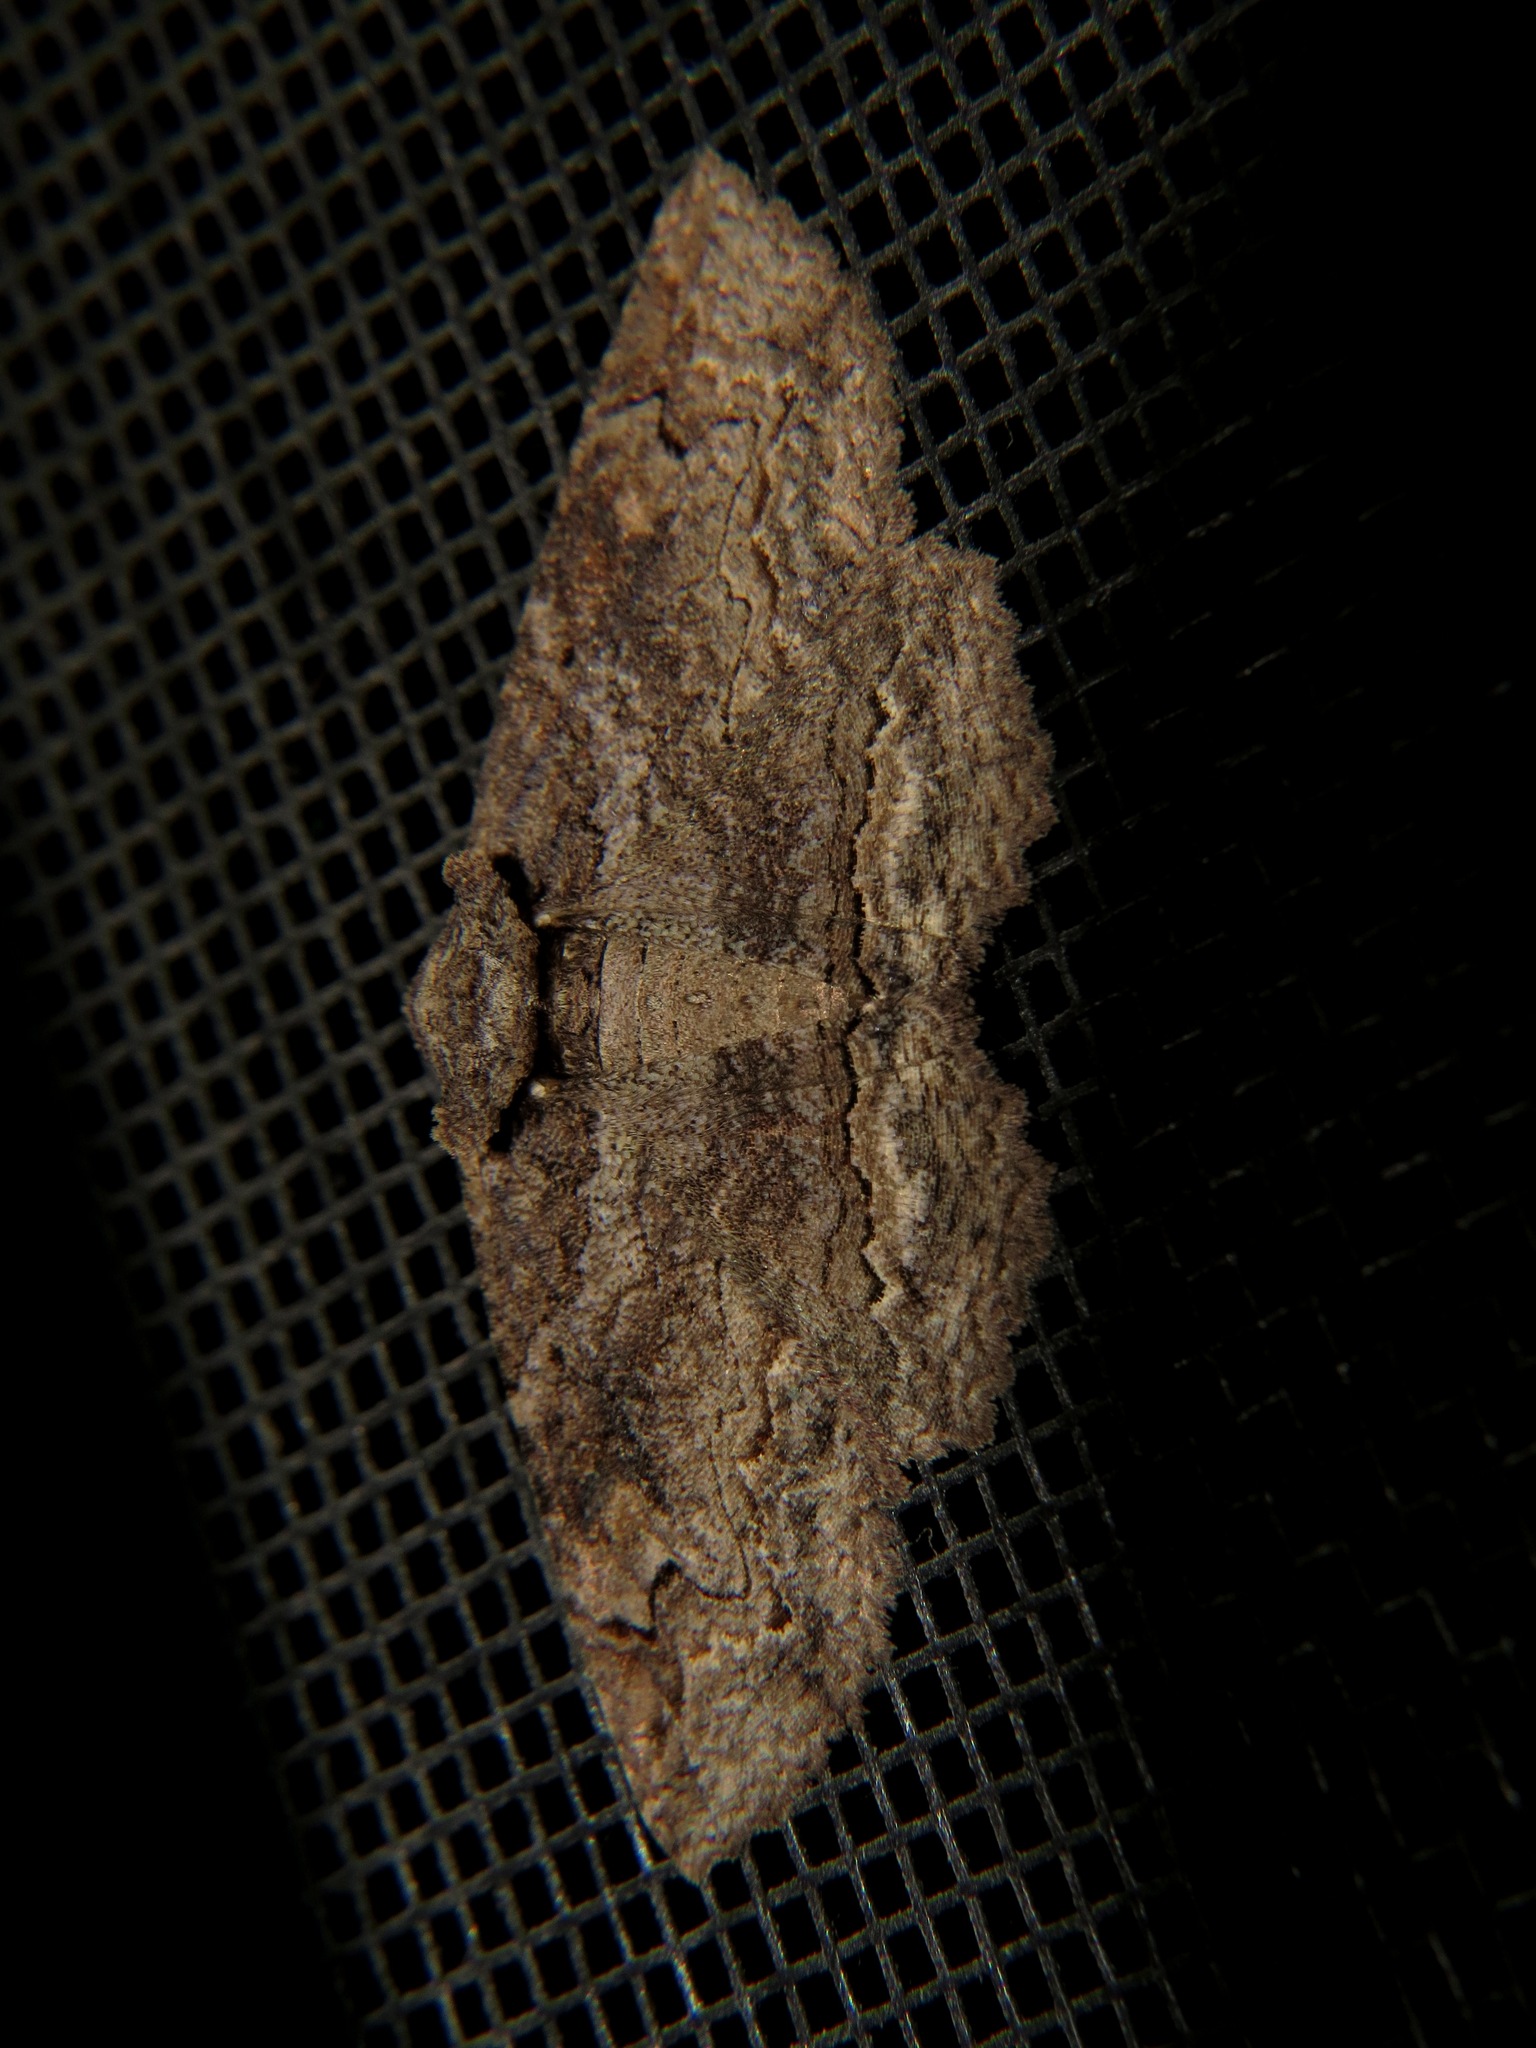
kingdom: Animalia
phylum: Arthropoda
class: Insecta
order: Lepidoptera
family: Erebidae
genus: Zale
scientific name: Zale galbanata
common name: Maple zale
